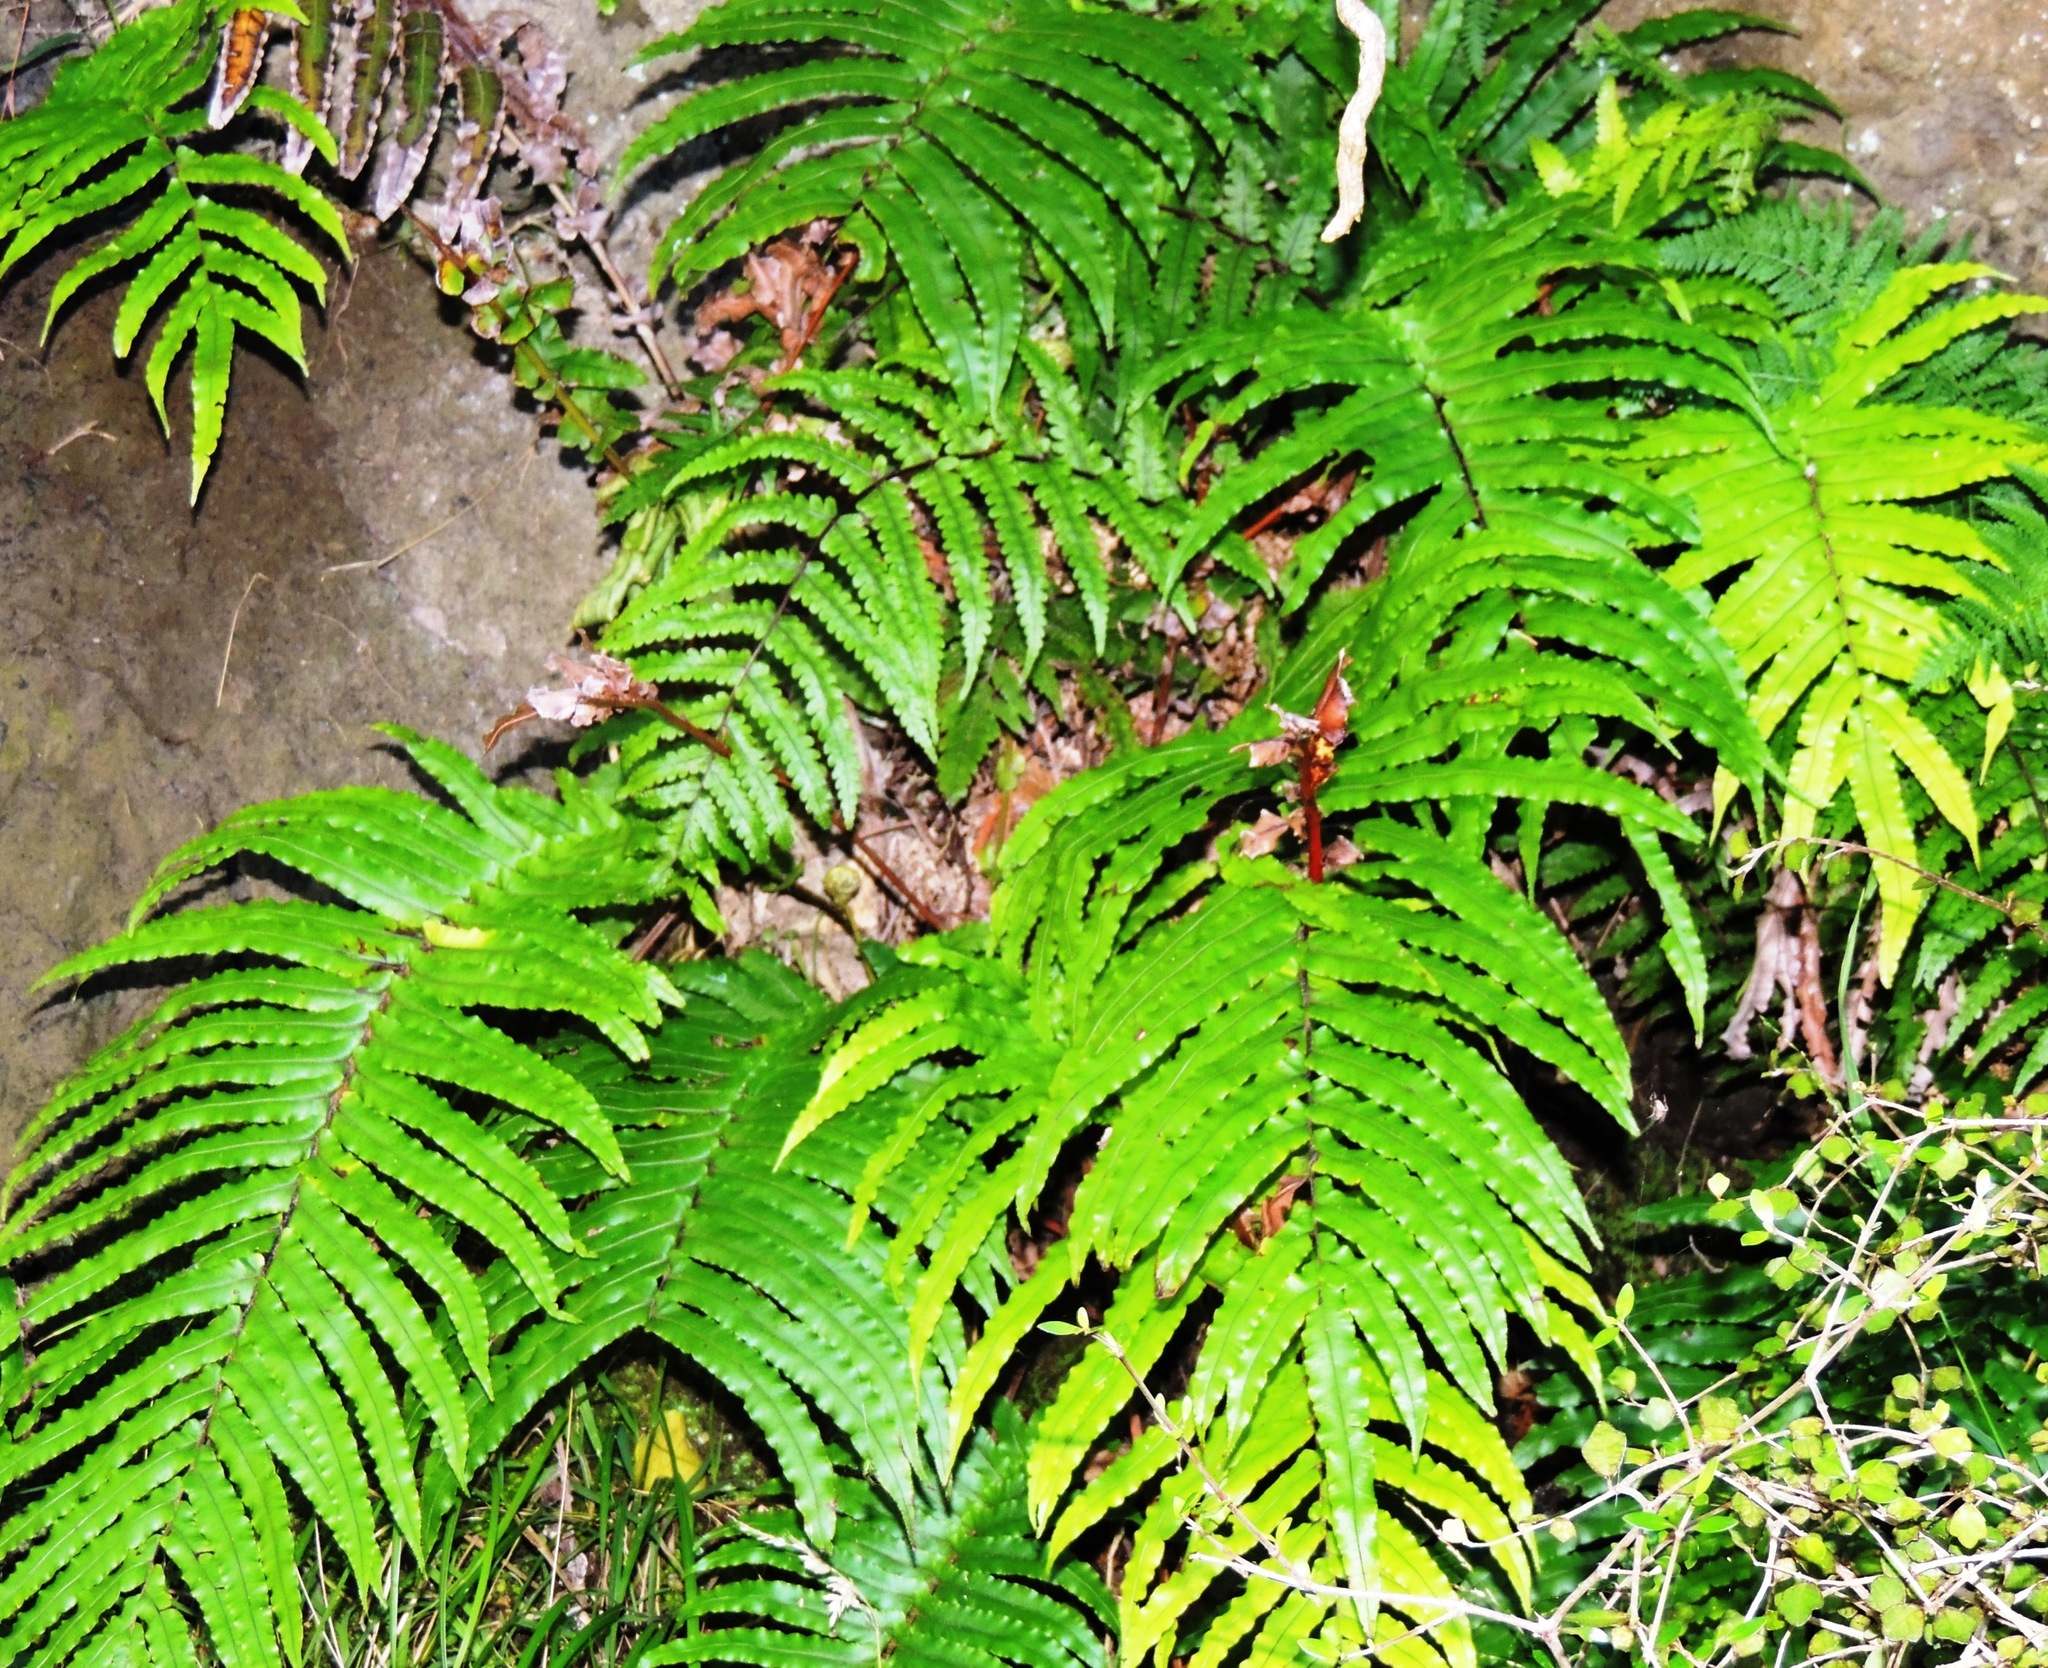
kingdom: Plantae
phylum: Tracheophyta
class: Polypodiopsida
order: Polypodiales
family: Blechnaceae
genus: Parablechnum
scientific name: Parablechnum novae-zelandiae
